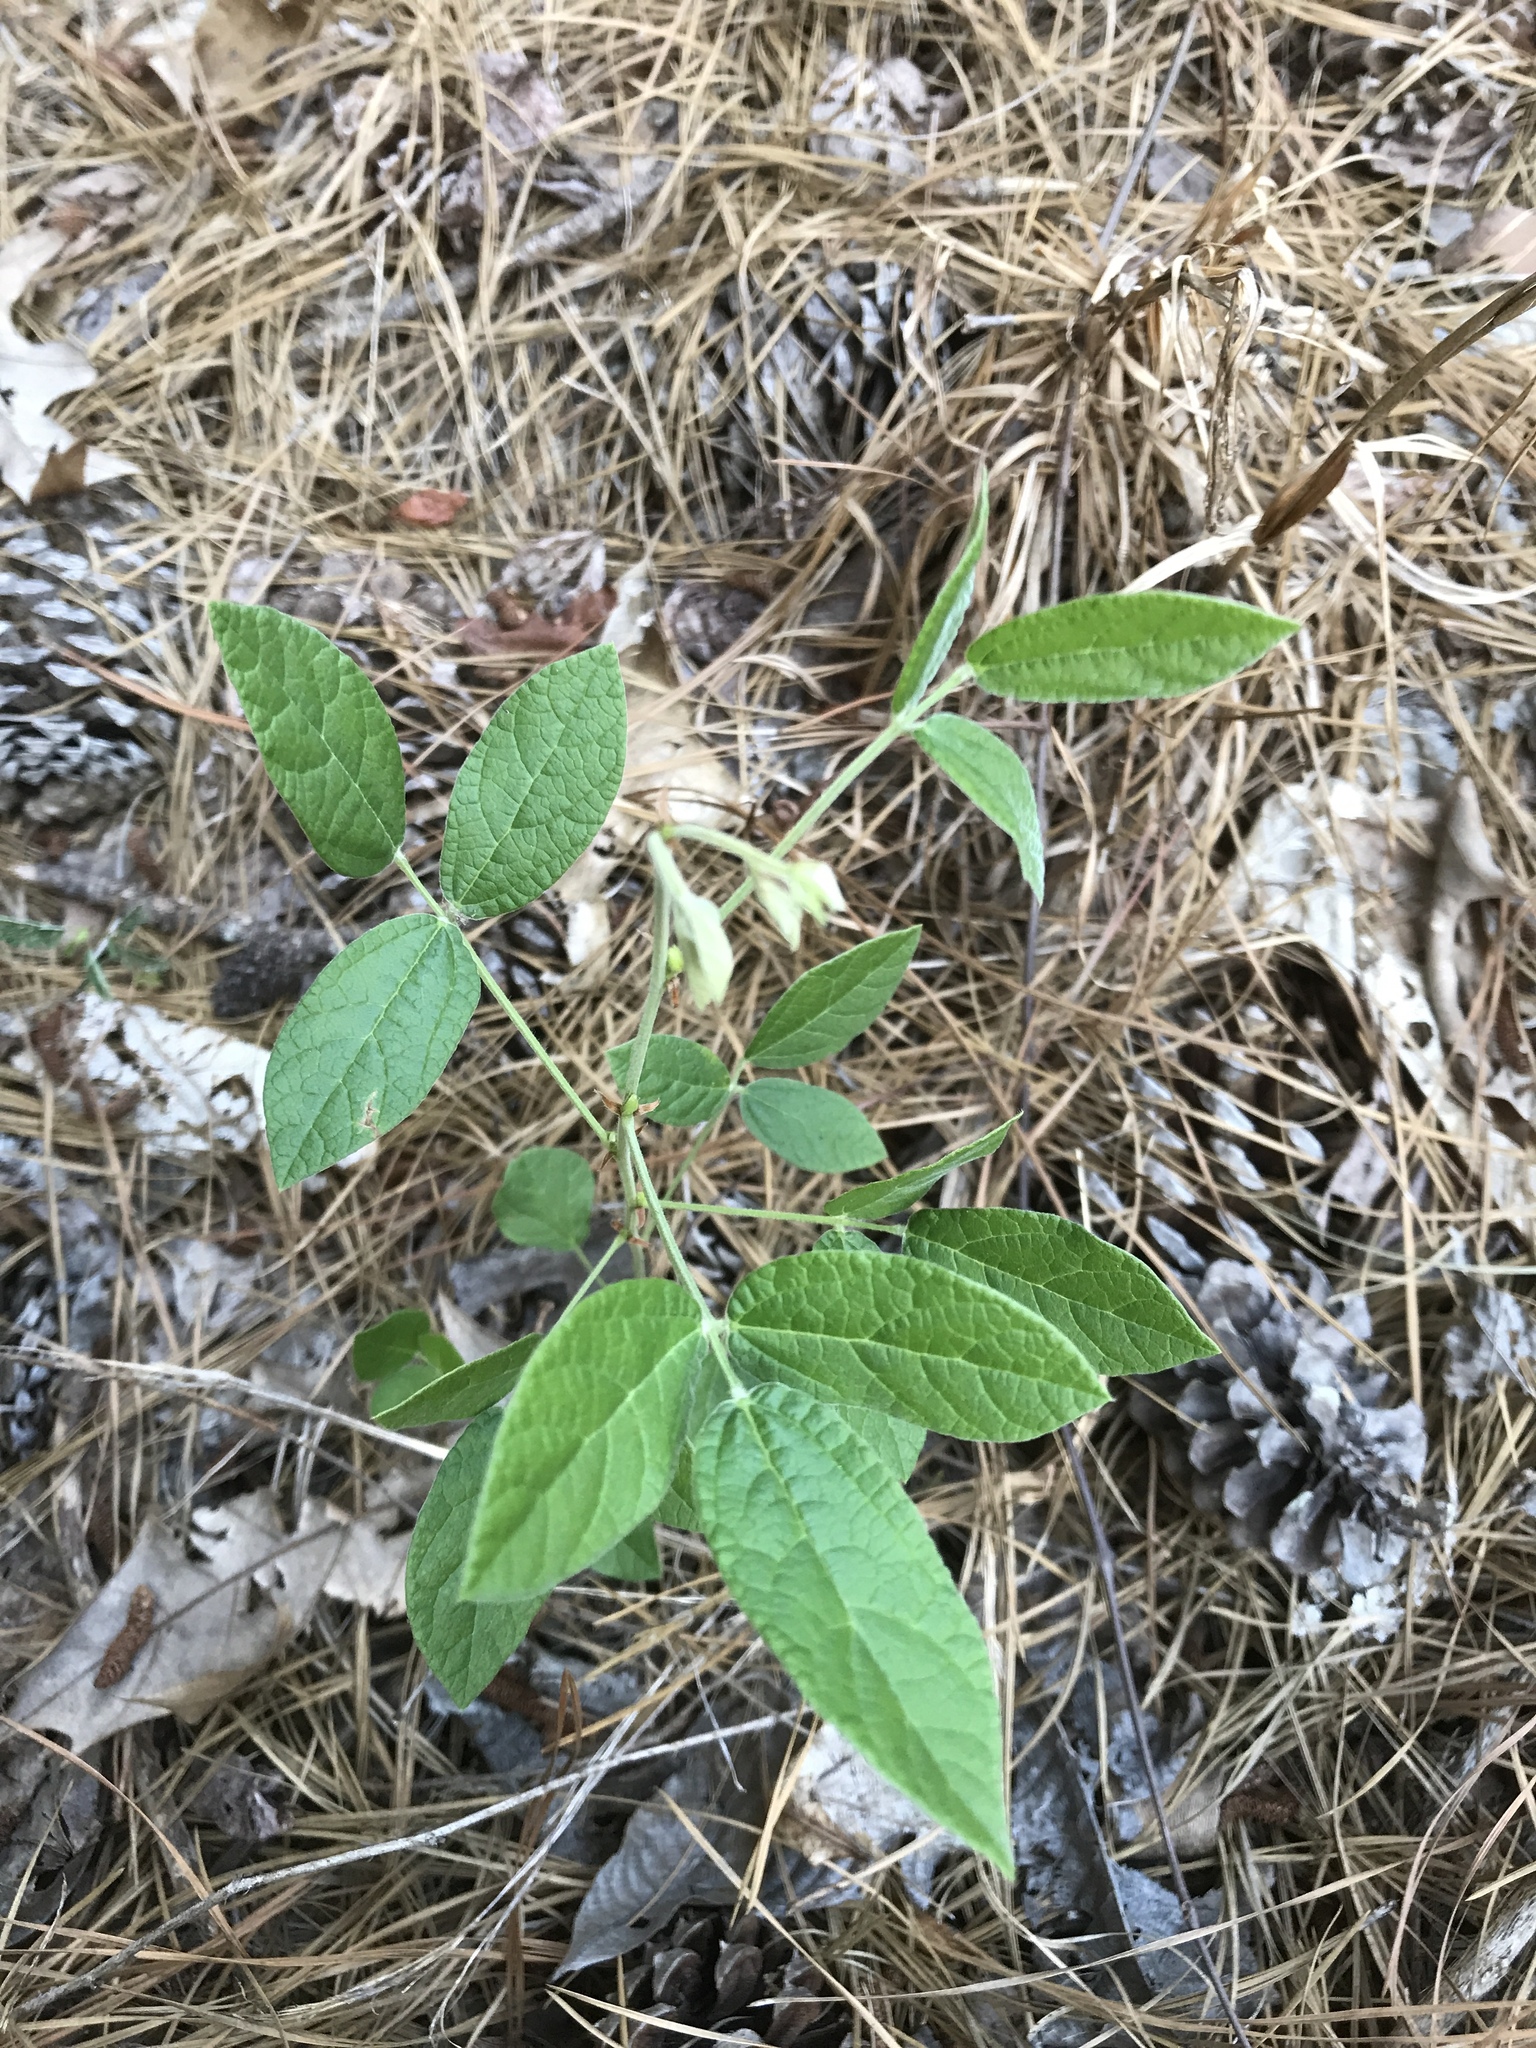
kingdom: Plantae
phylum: Tracheophyta
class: Magnoliopsida
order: Fabales
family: Fabaceae
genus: Rhynchosia
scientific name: Rhynchosia tomentosa
